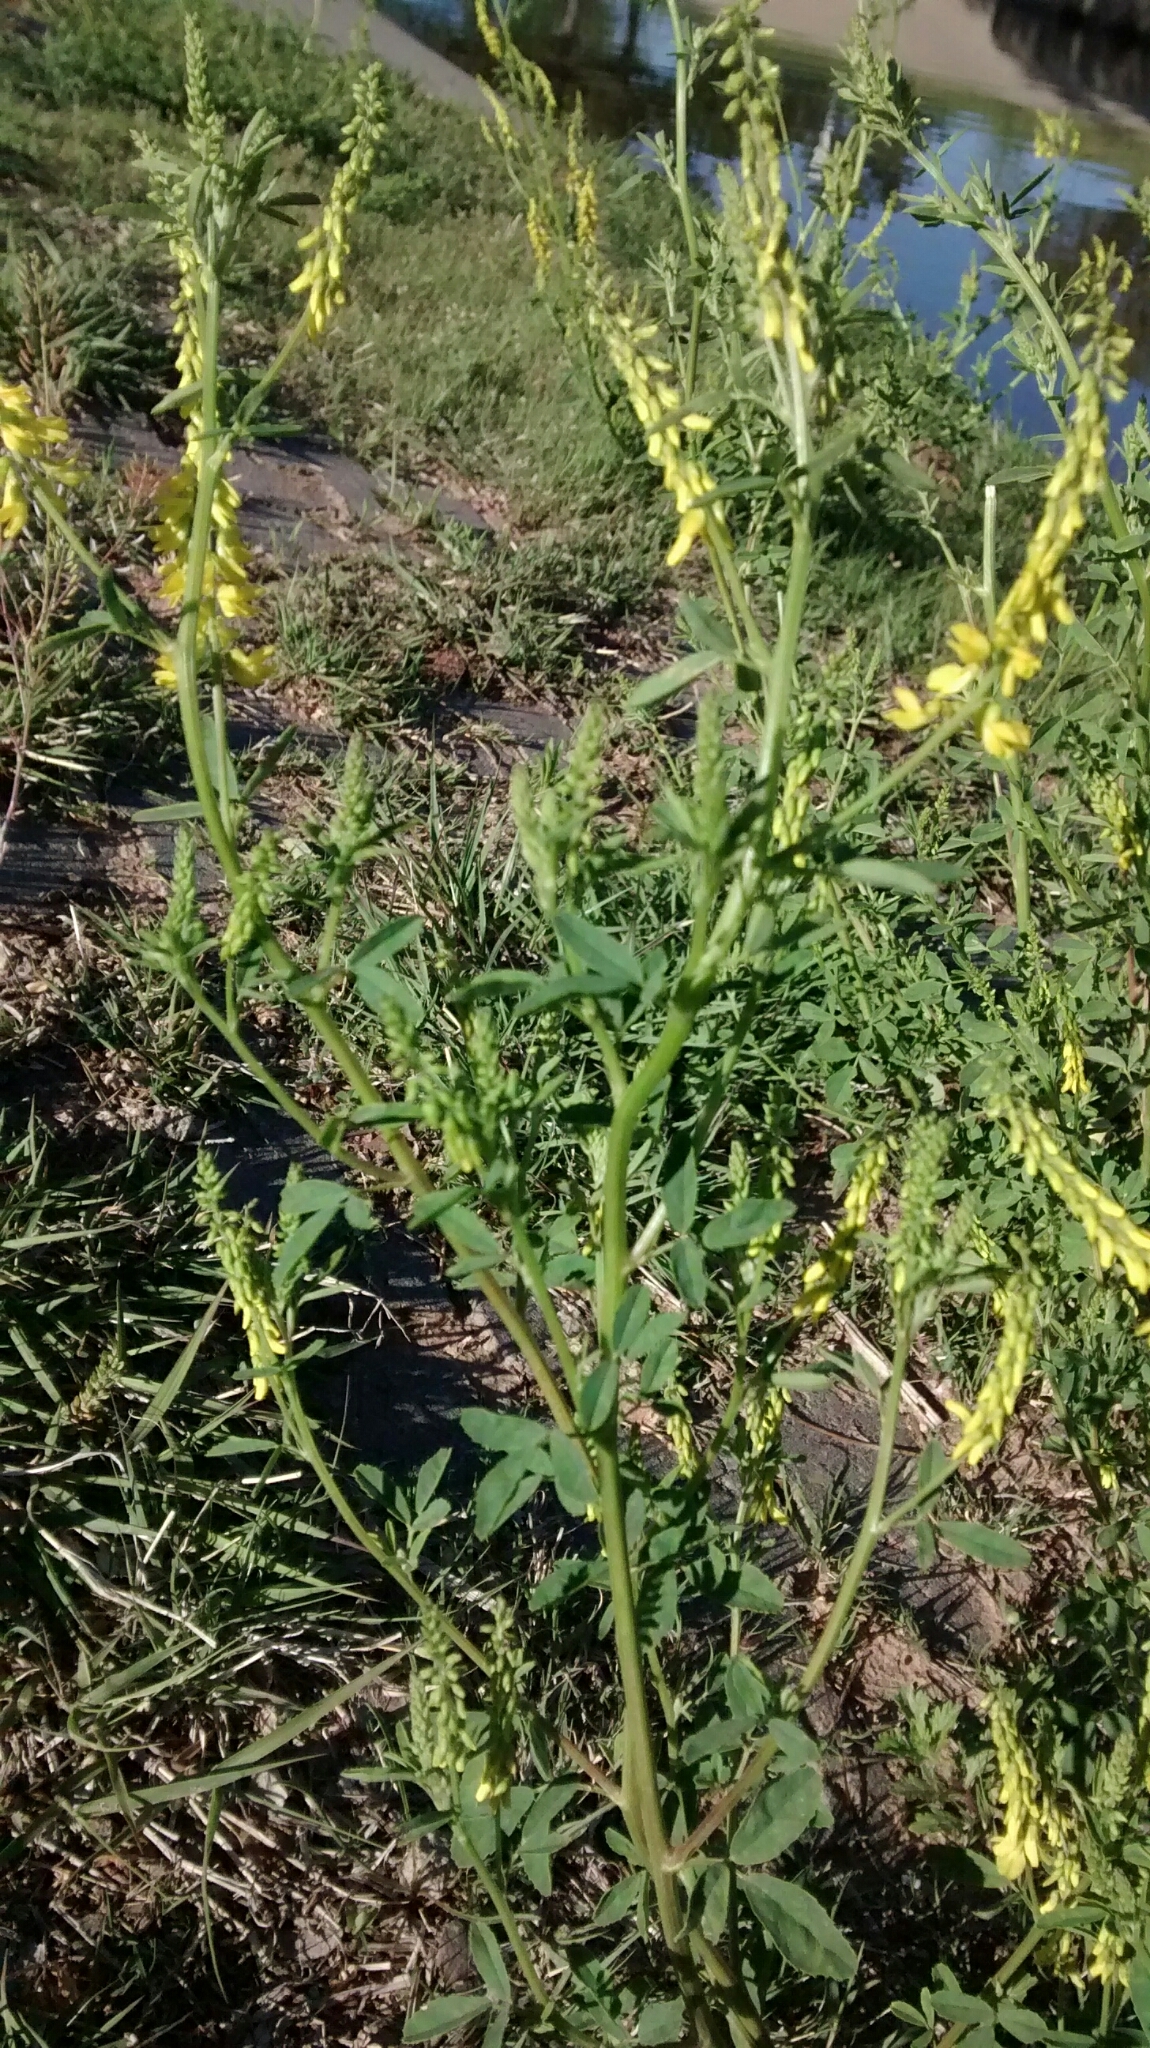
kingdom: Plantae
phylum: Tracheophyta
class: Magnoliopsida
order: Fabales
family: Fabaceae
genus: Melilotus
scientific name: Melilotus officinalis
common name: Sweetclover
